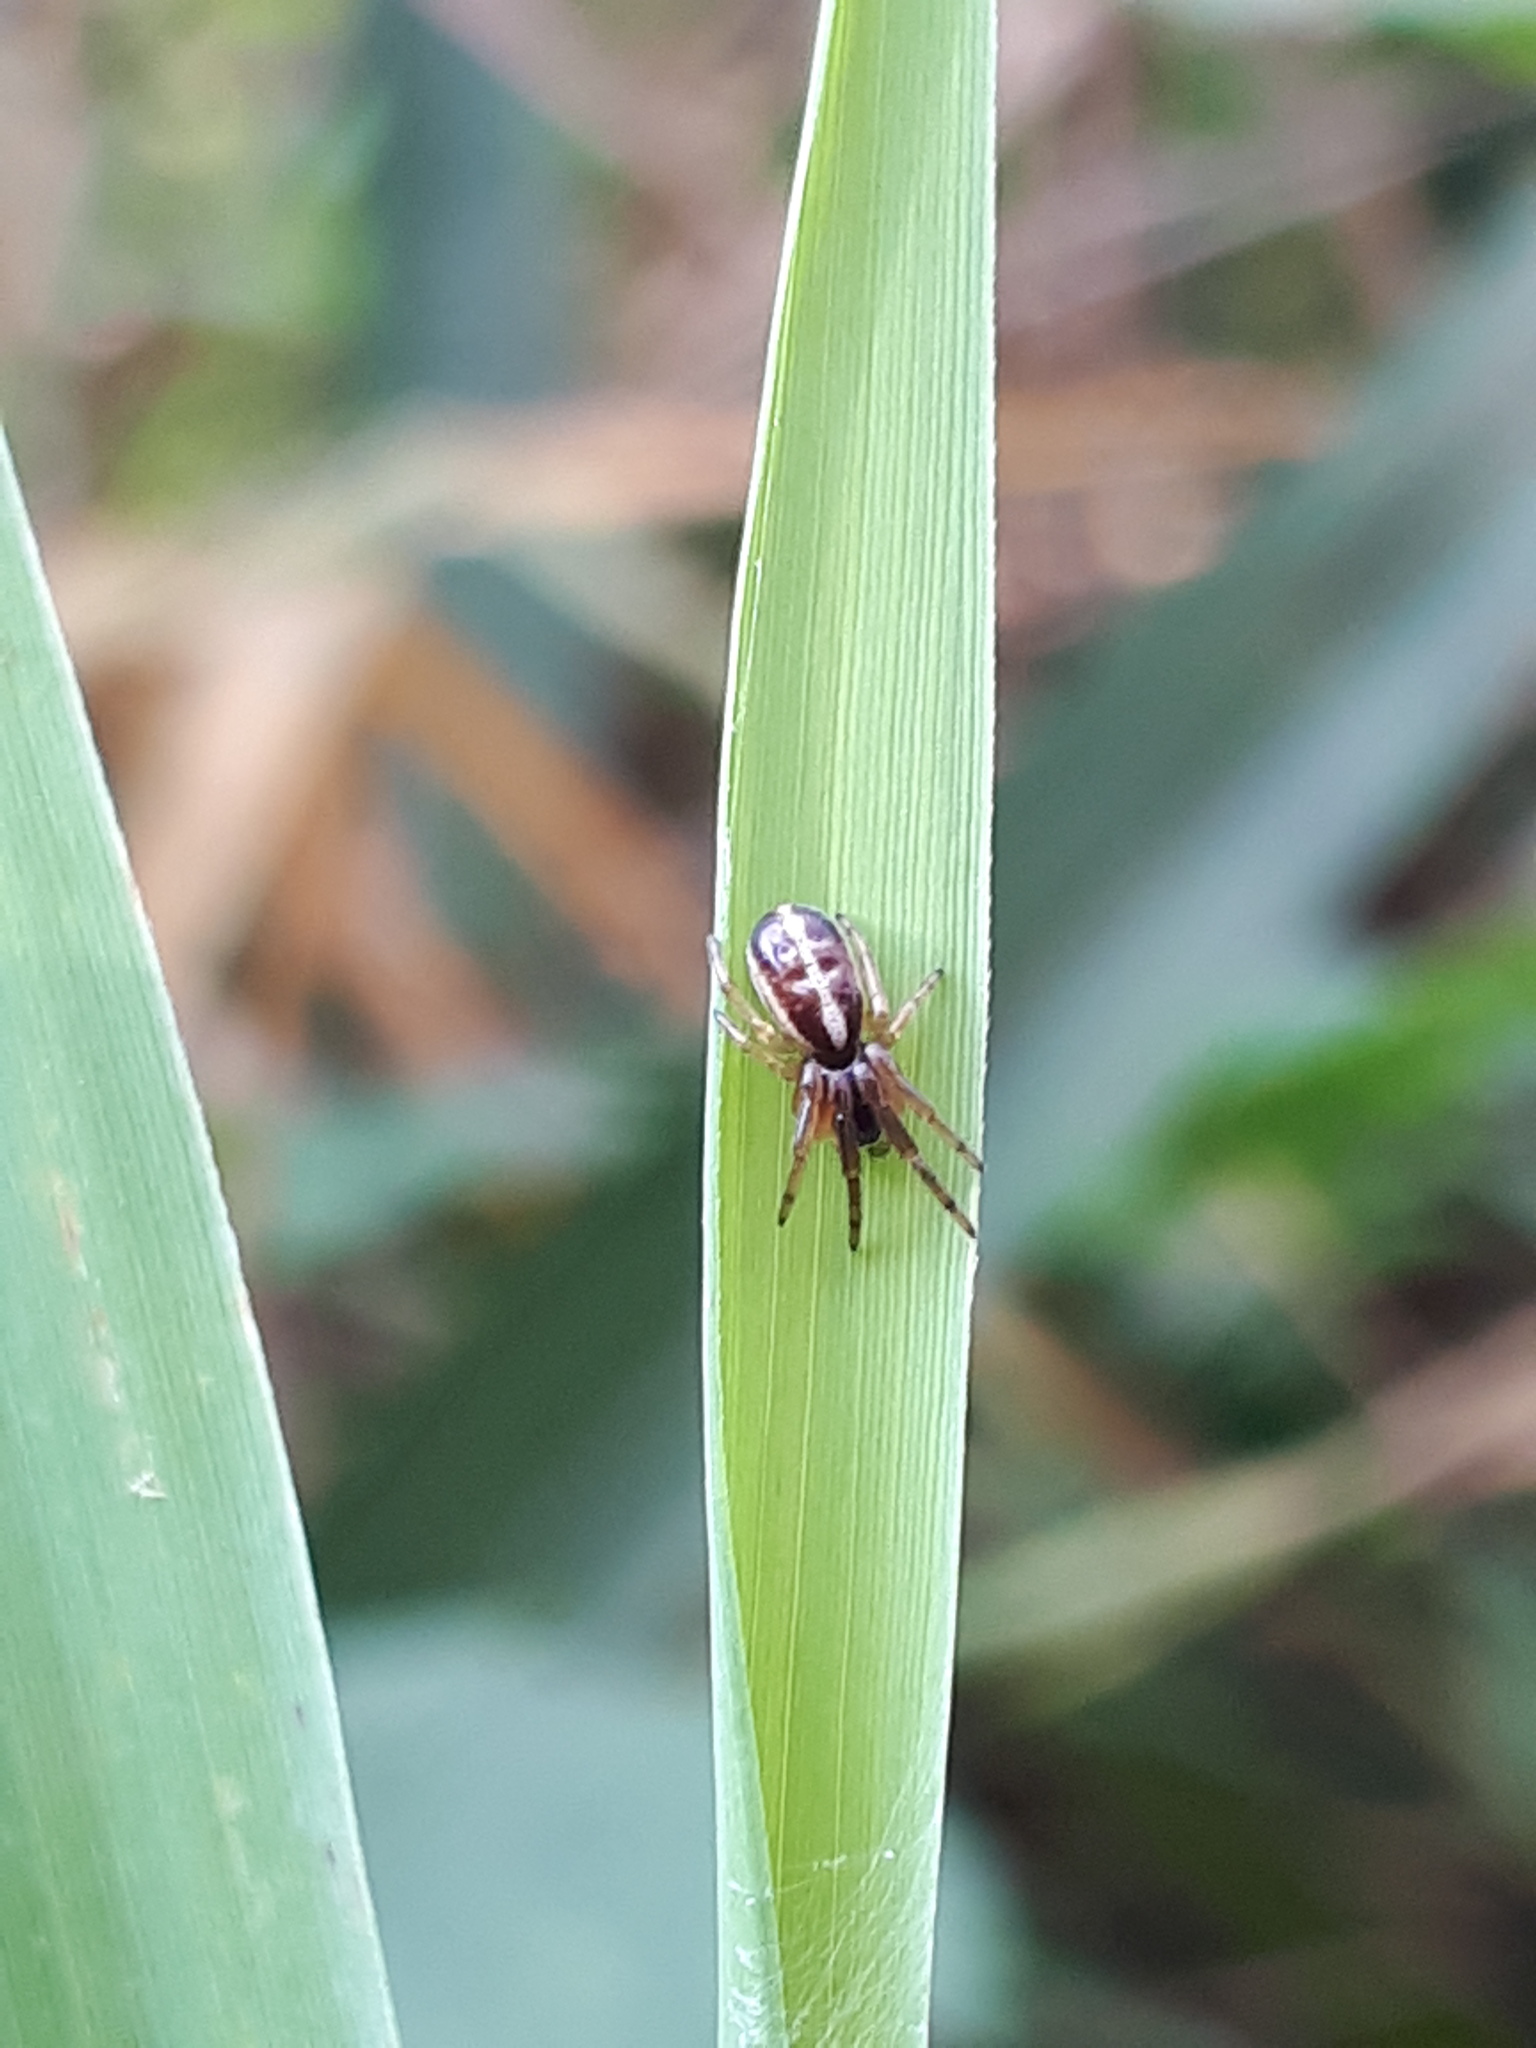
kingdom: Animalia
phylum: Arthropoda
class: Arachnida
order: Araneae
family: Araneidae
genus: Singa
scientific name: Singa nitidula
